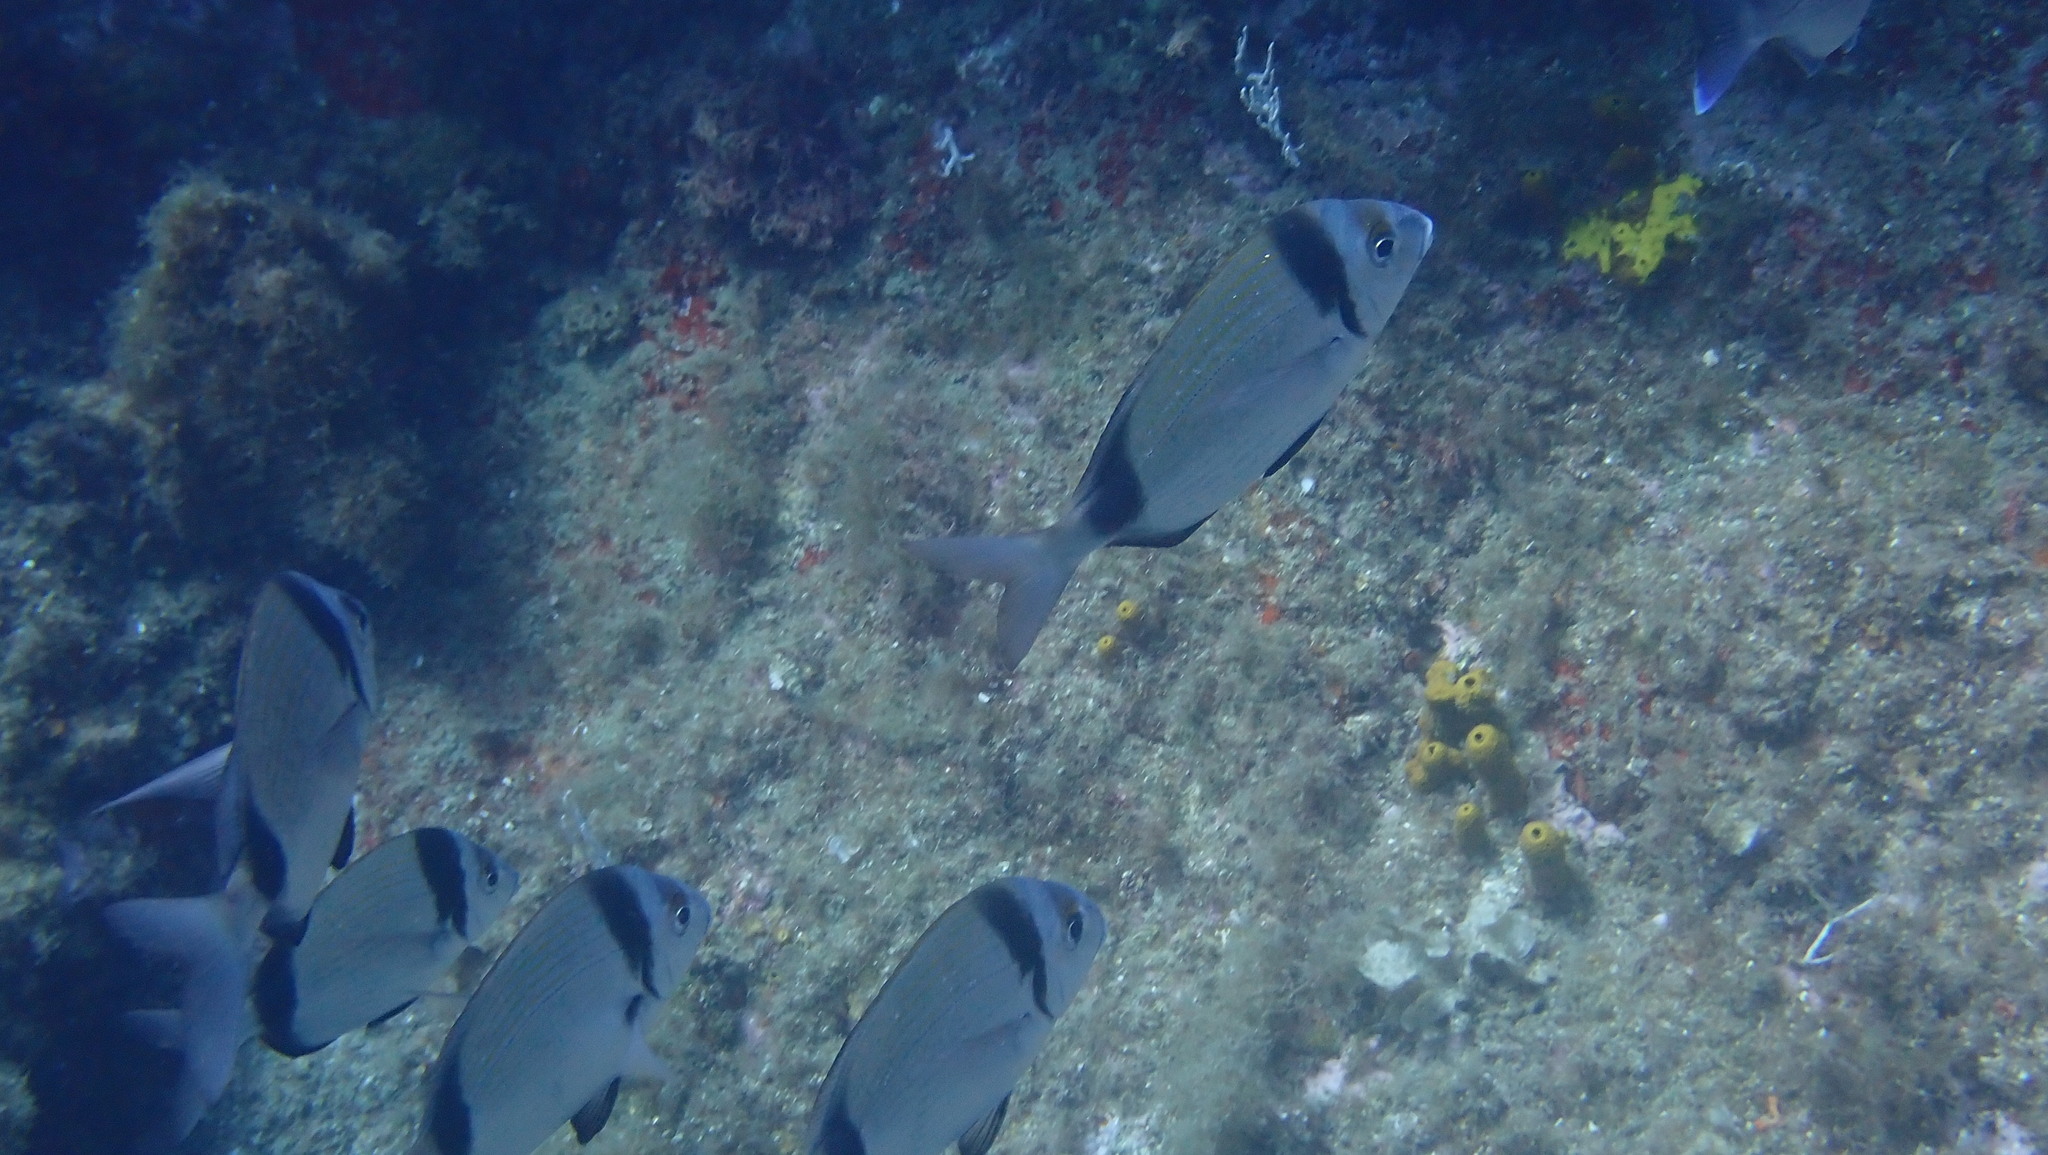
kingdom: Animalia
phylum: Chordata
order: Perciformes
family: Sparidae
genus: Diplodus
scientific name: Diplodus vulgaris
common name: Common two-banded seabream
